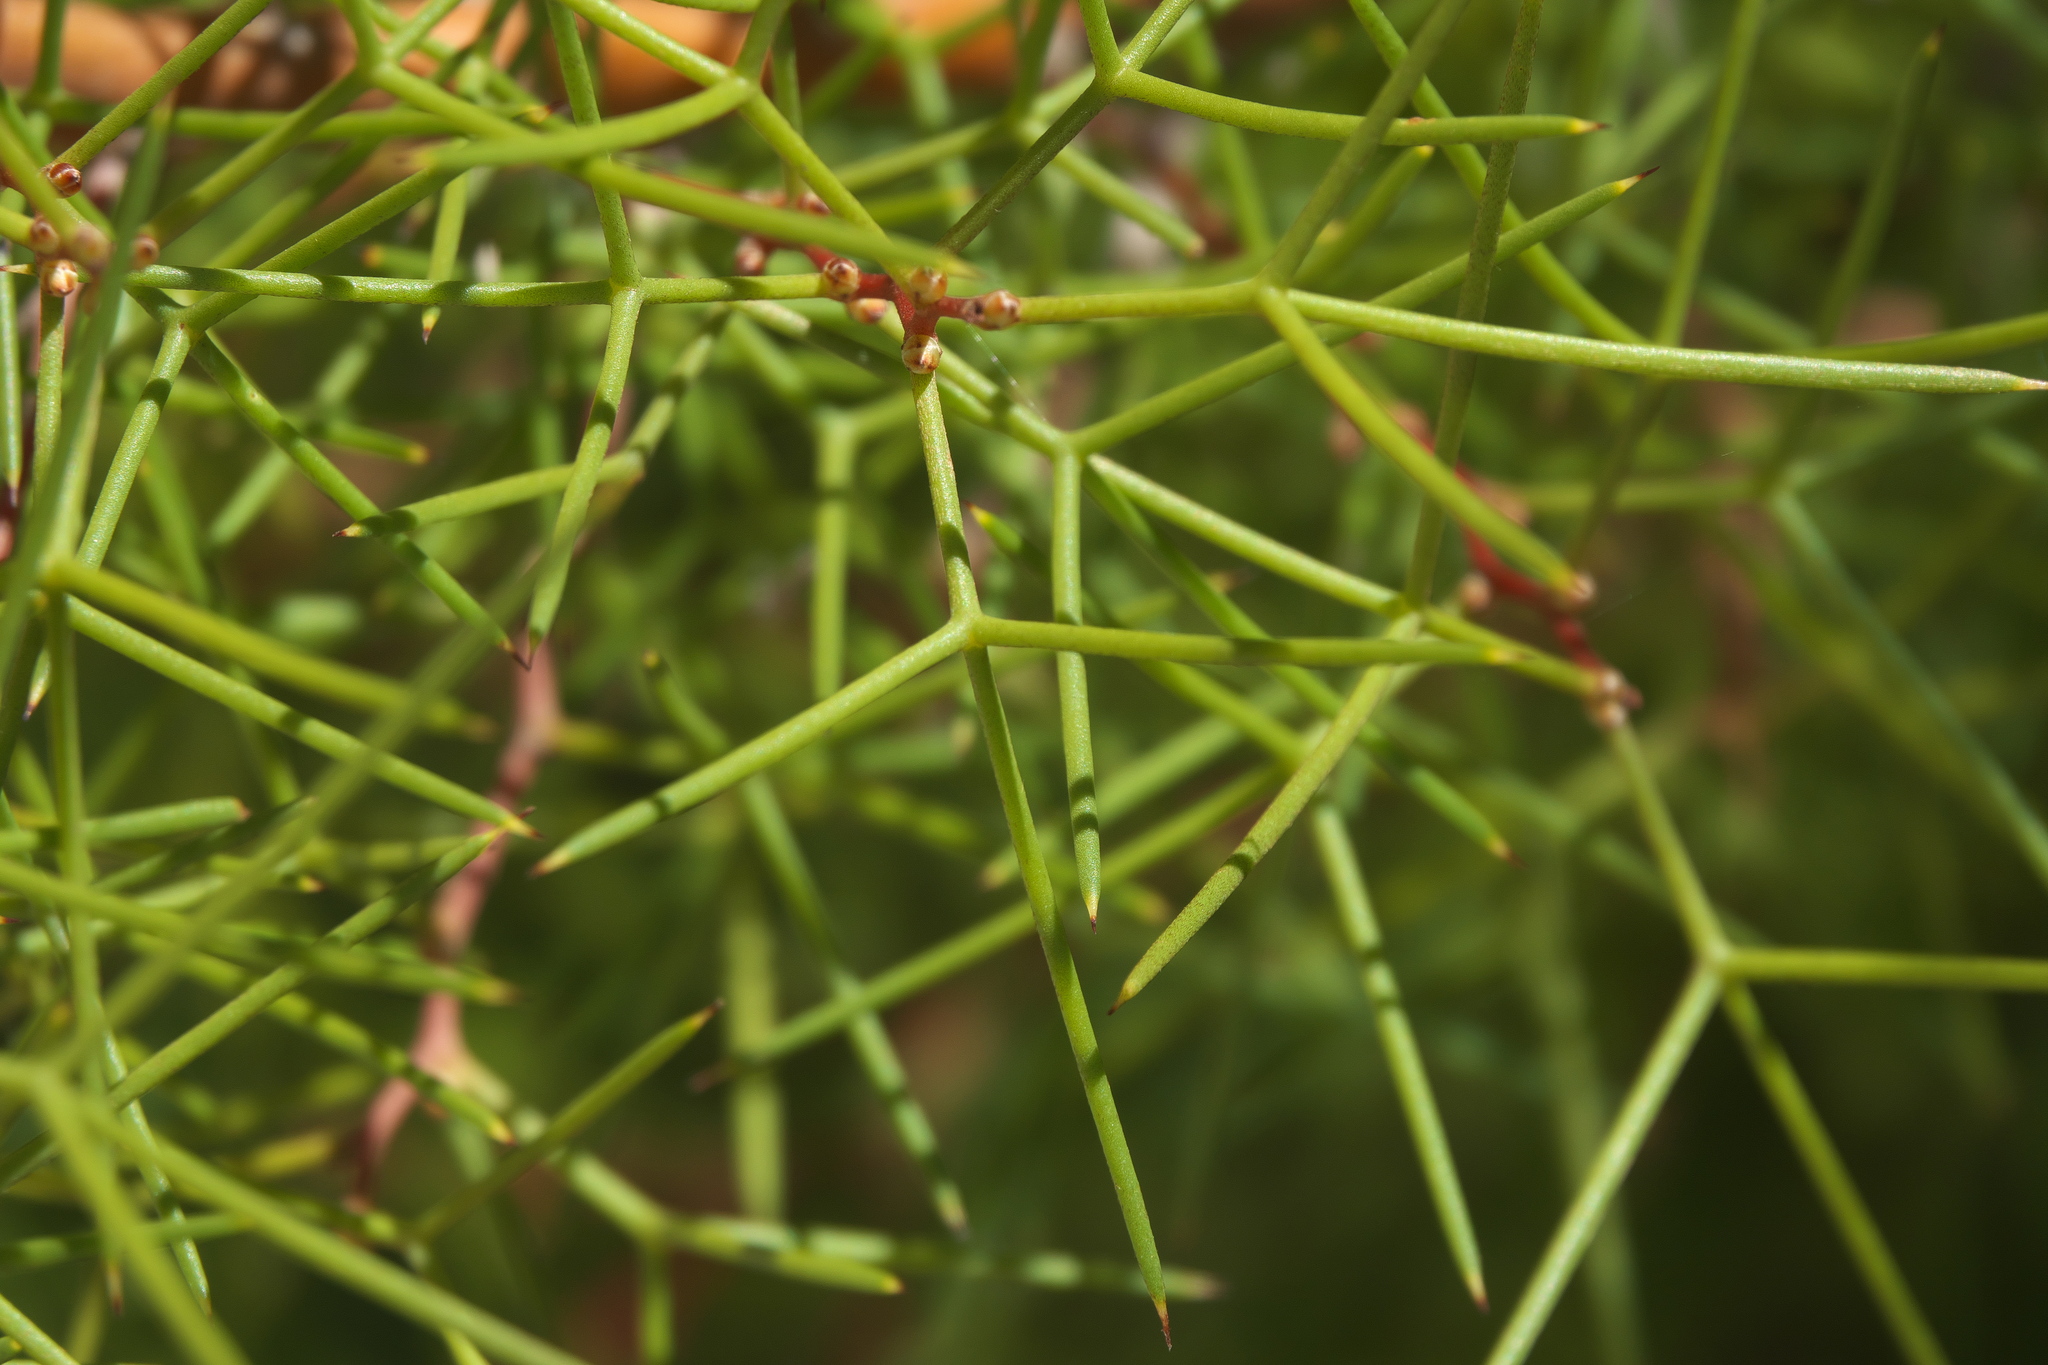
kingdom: Plantae
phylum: Tracheophyta
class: Magnoliopsida
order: Proteales
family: Proteaceae
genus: Hakea
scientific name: Hakea trifurcata
